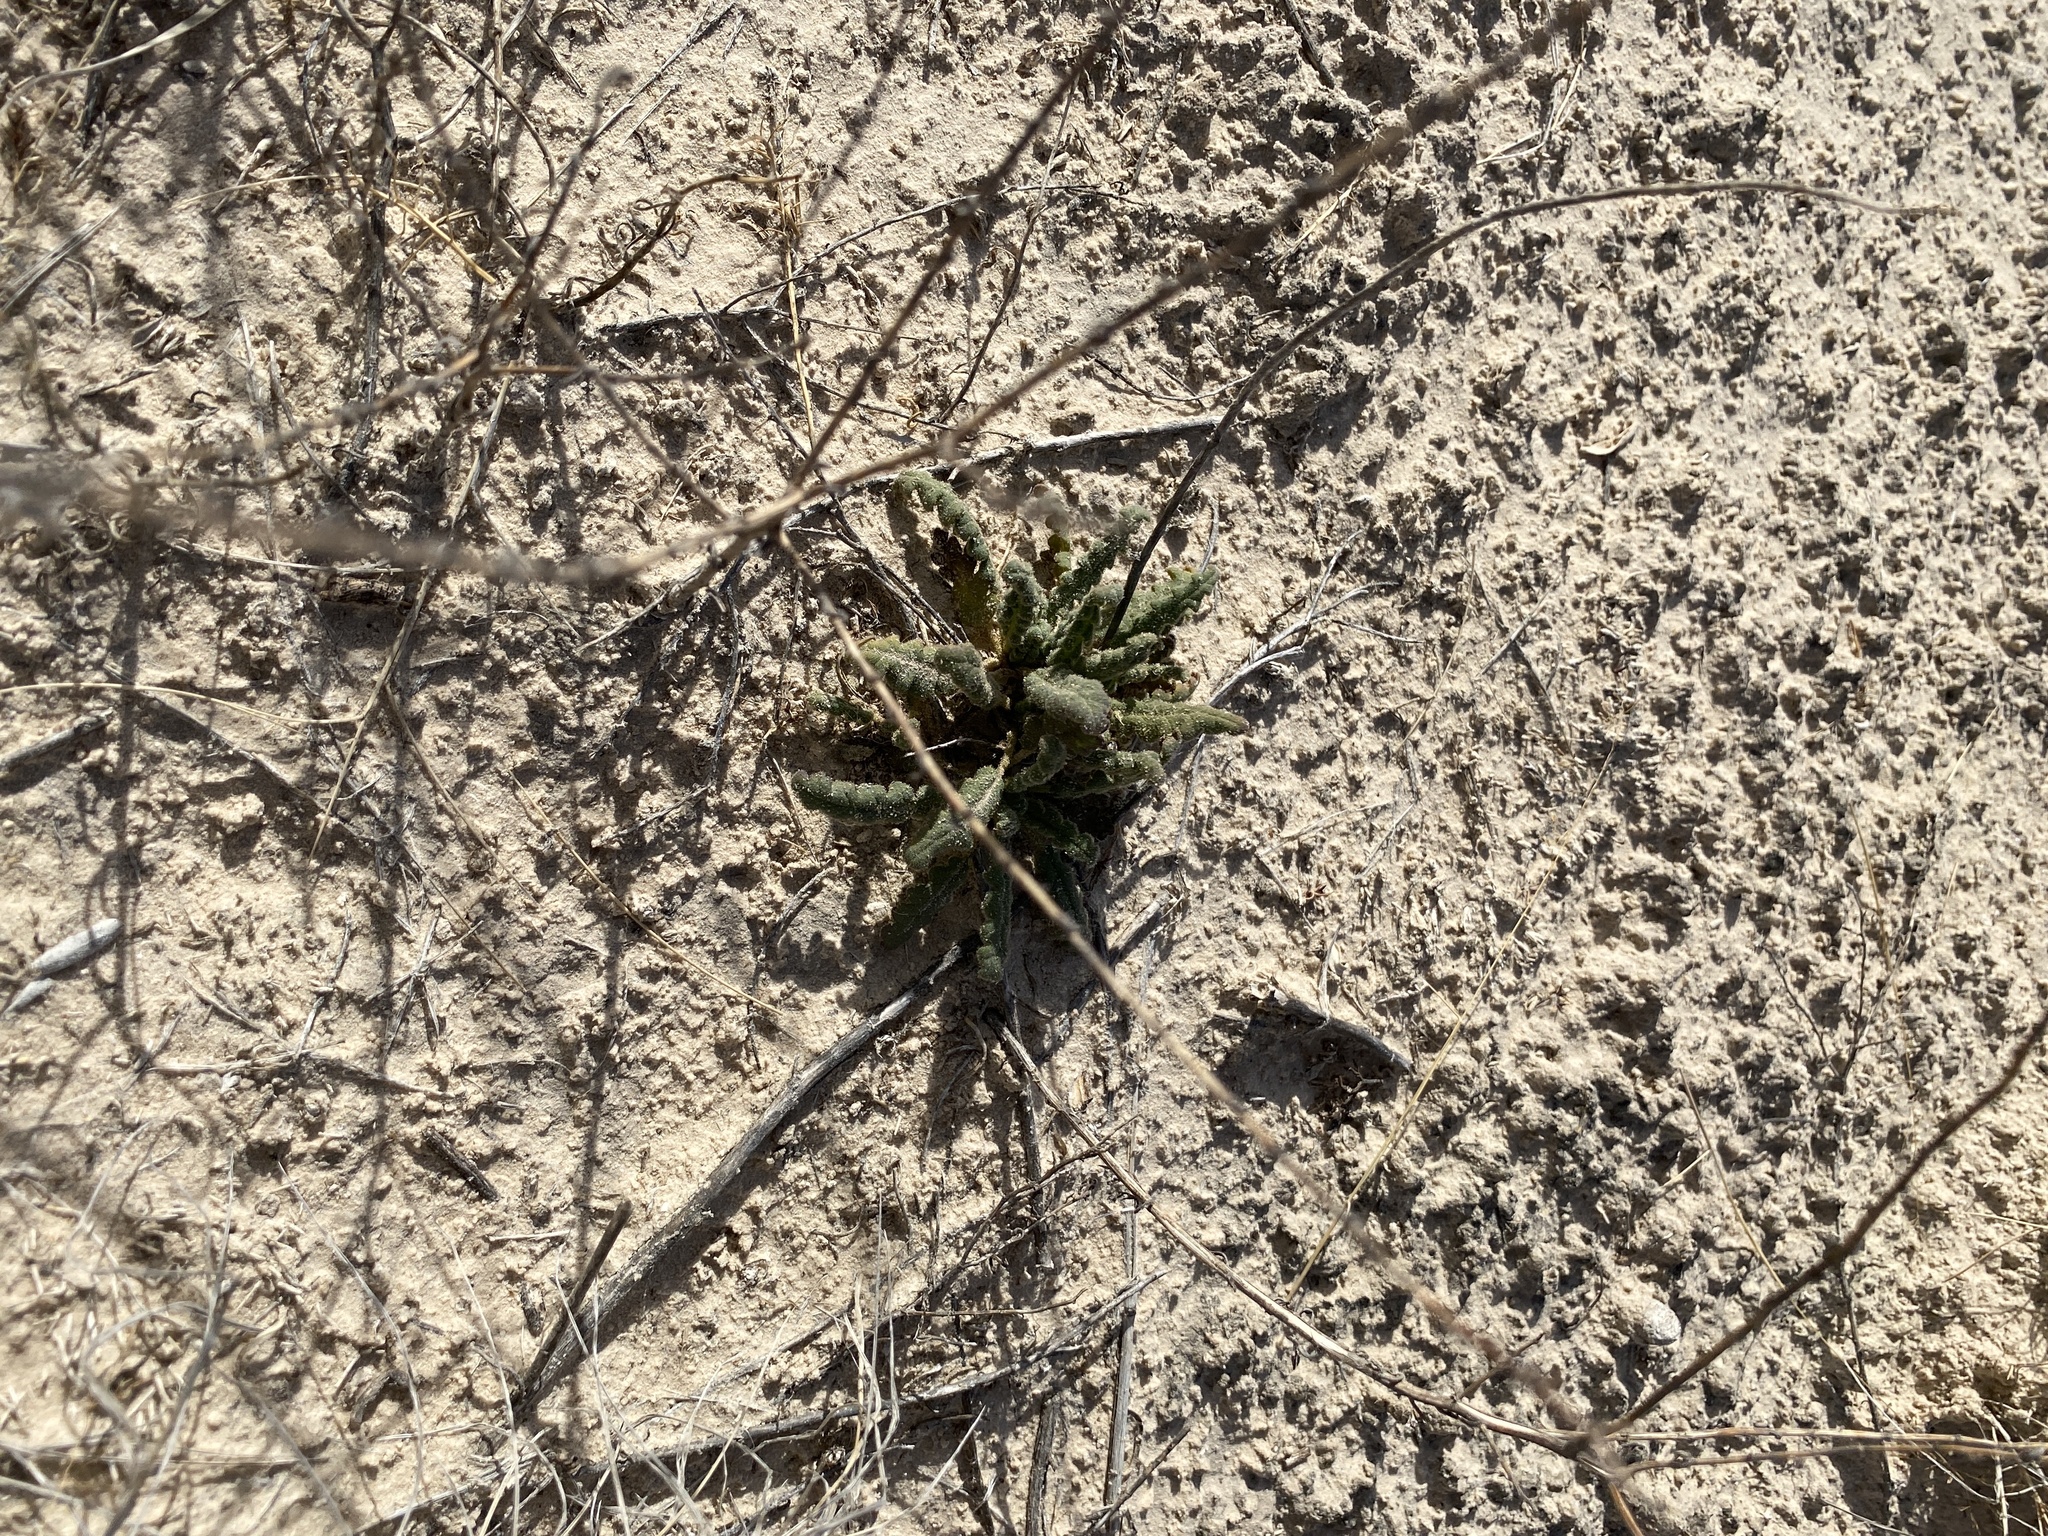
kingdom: Plantae
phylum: Tracheophyta
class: Magnoliopsida
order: Boraginales
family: Hydrophyllaceae
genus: Phacelia
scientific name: Phacelia integrifolia
